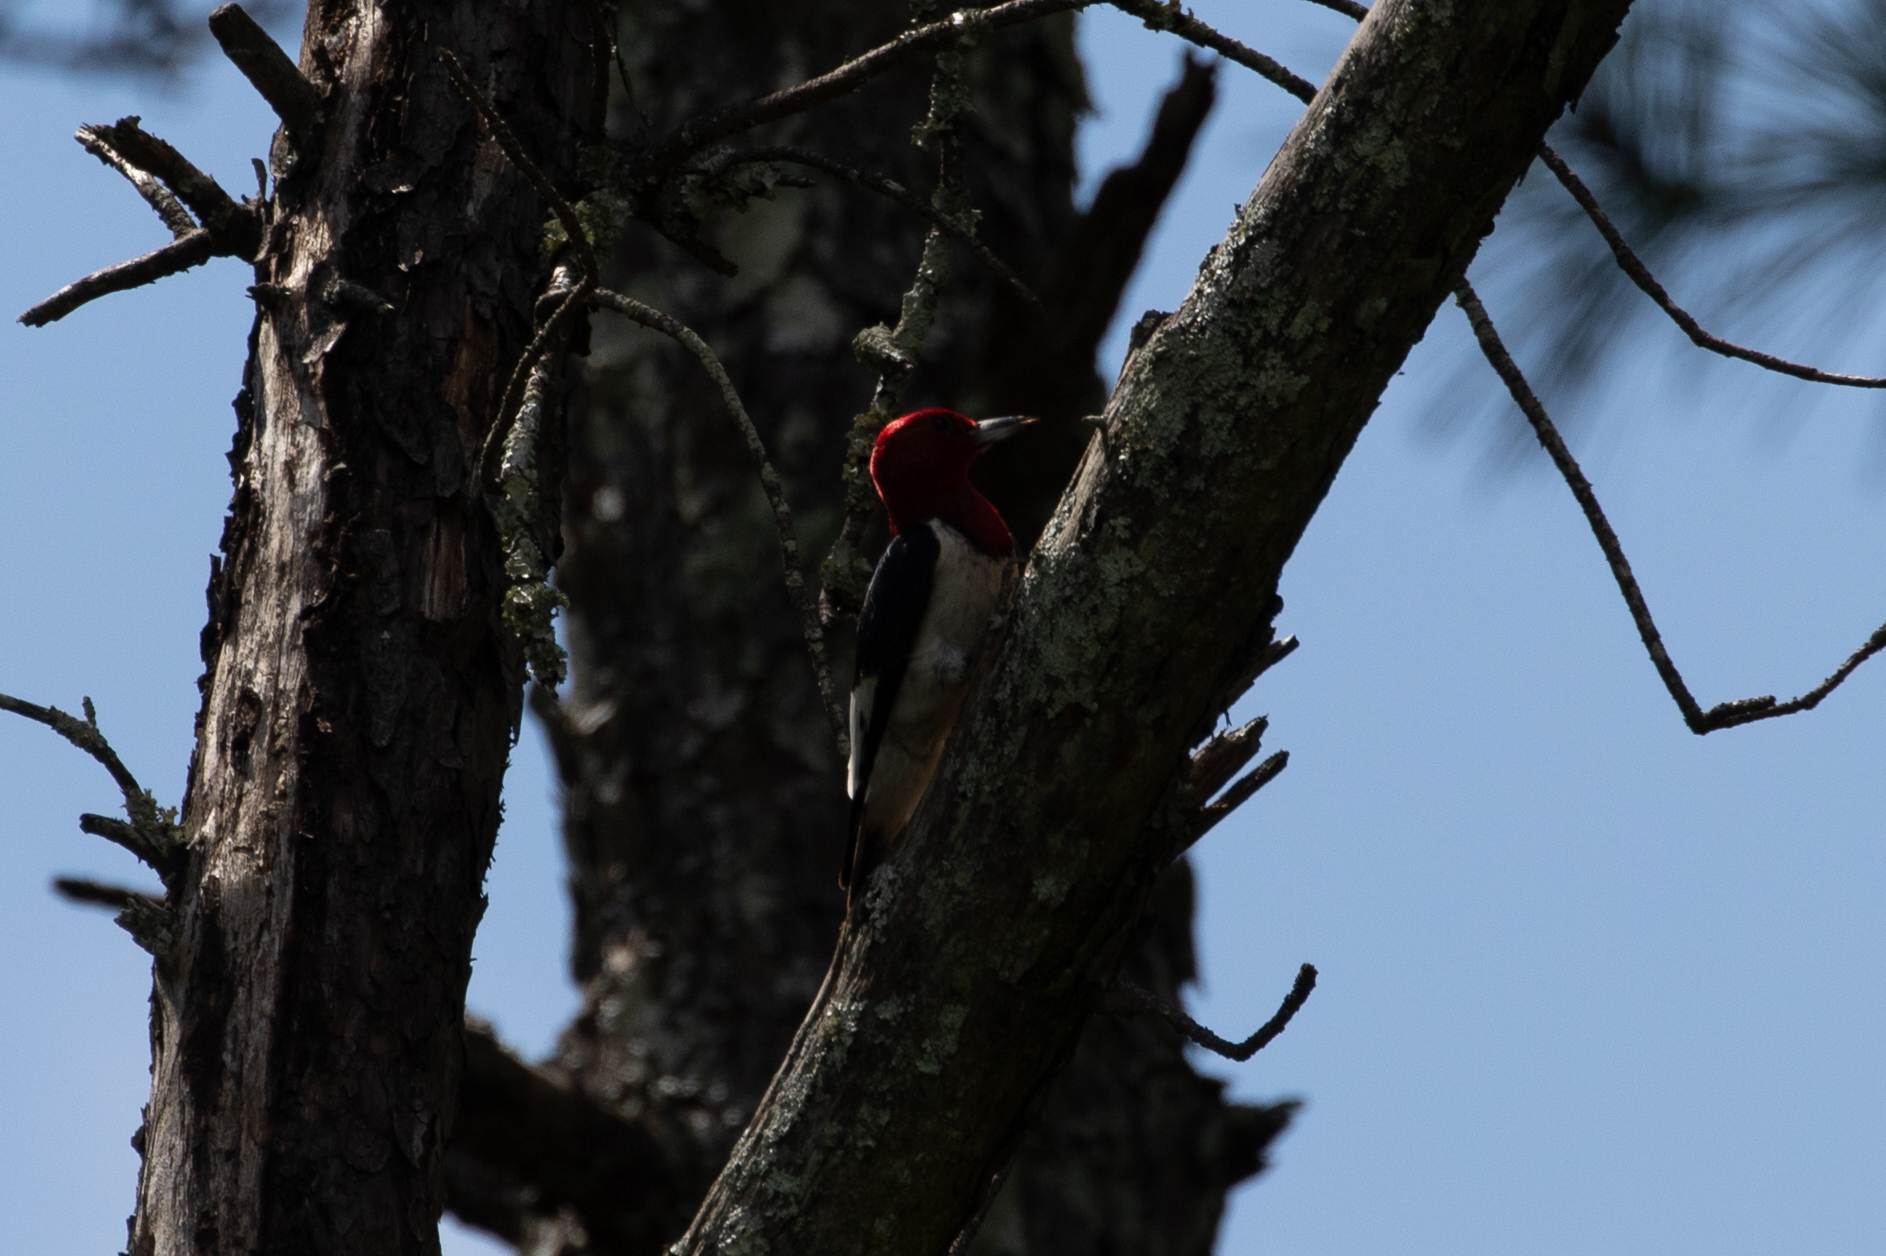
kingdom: Animalia
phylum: Chordata
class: Aves
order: Piciformes
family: Picidae
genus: Melanerpes
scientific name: Melanerpes erythrocephalus
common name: Red-headed woodpecker
